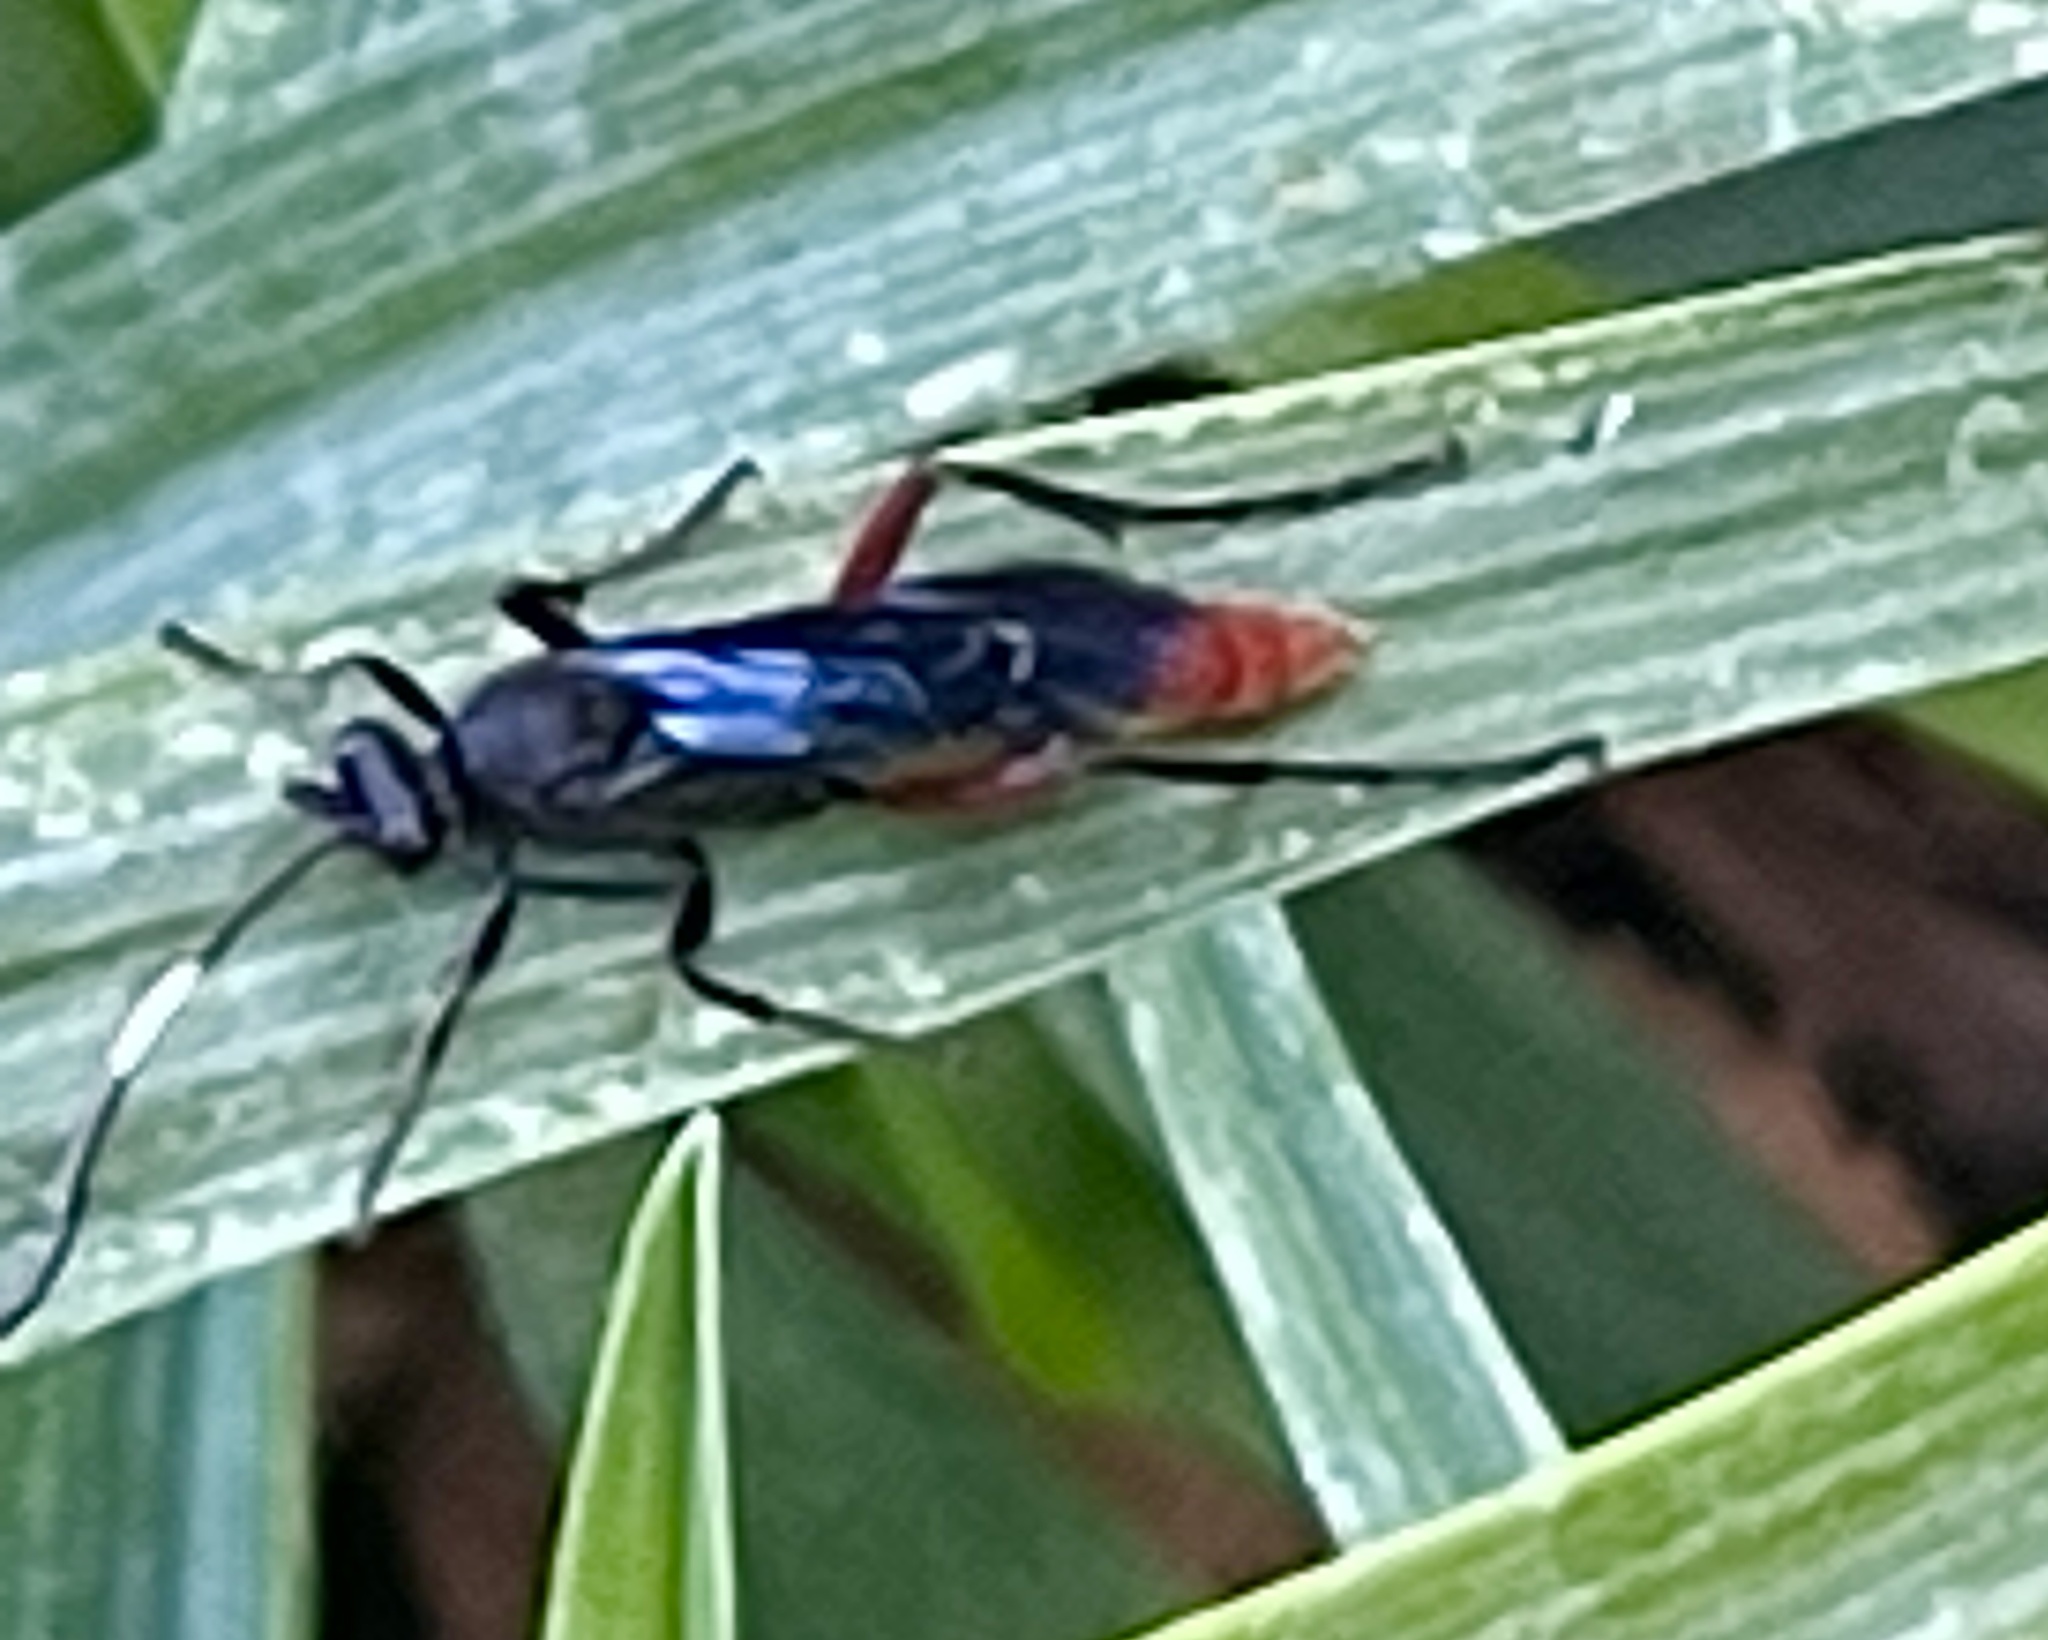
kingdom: Animalia
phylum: Arthropoda
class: Insecta
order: Hymenoptera
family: Ichneumonidae
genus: Limonethe
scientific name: Limonethe maurator
